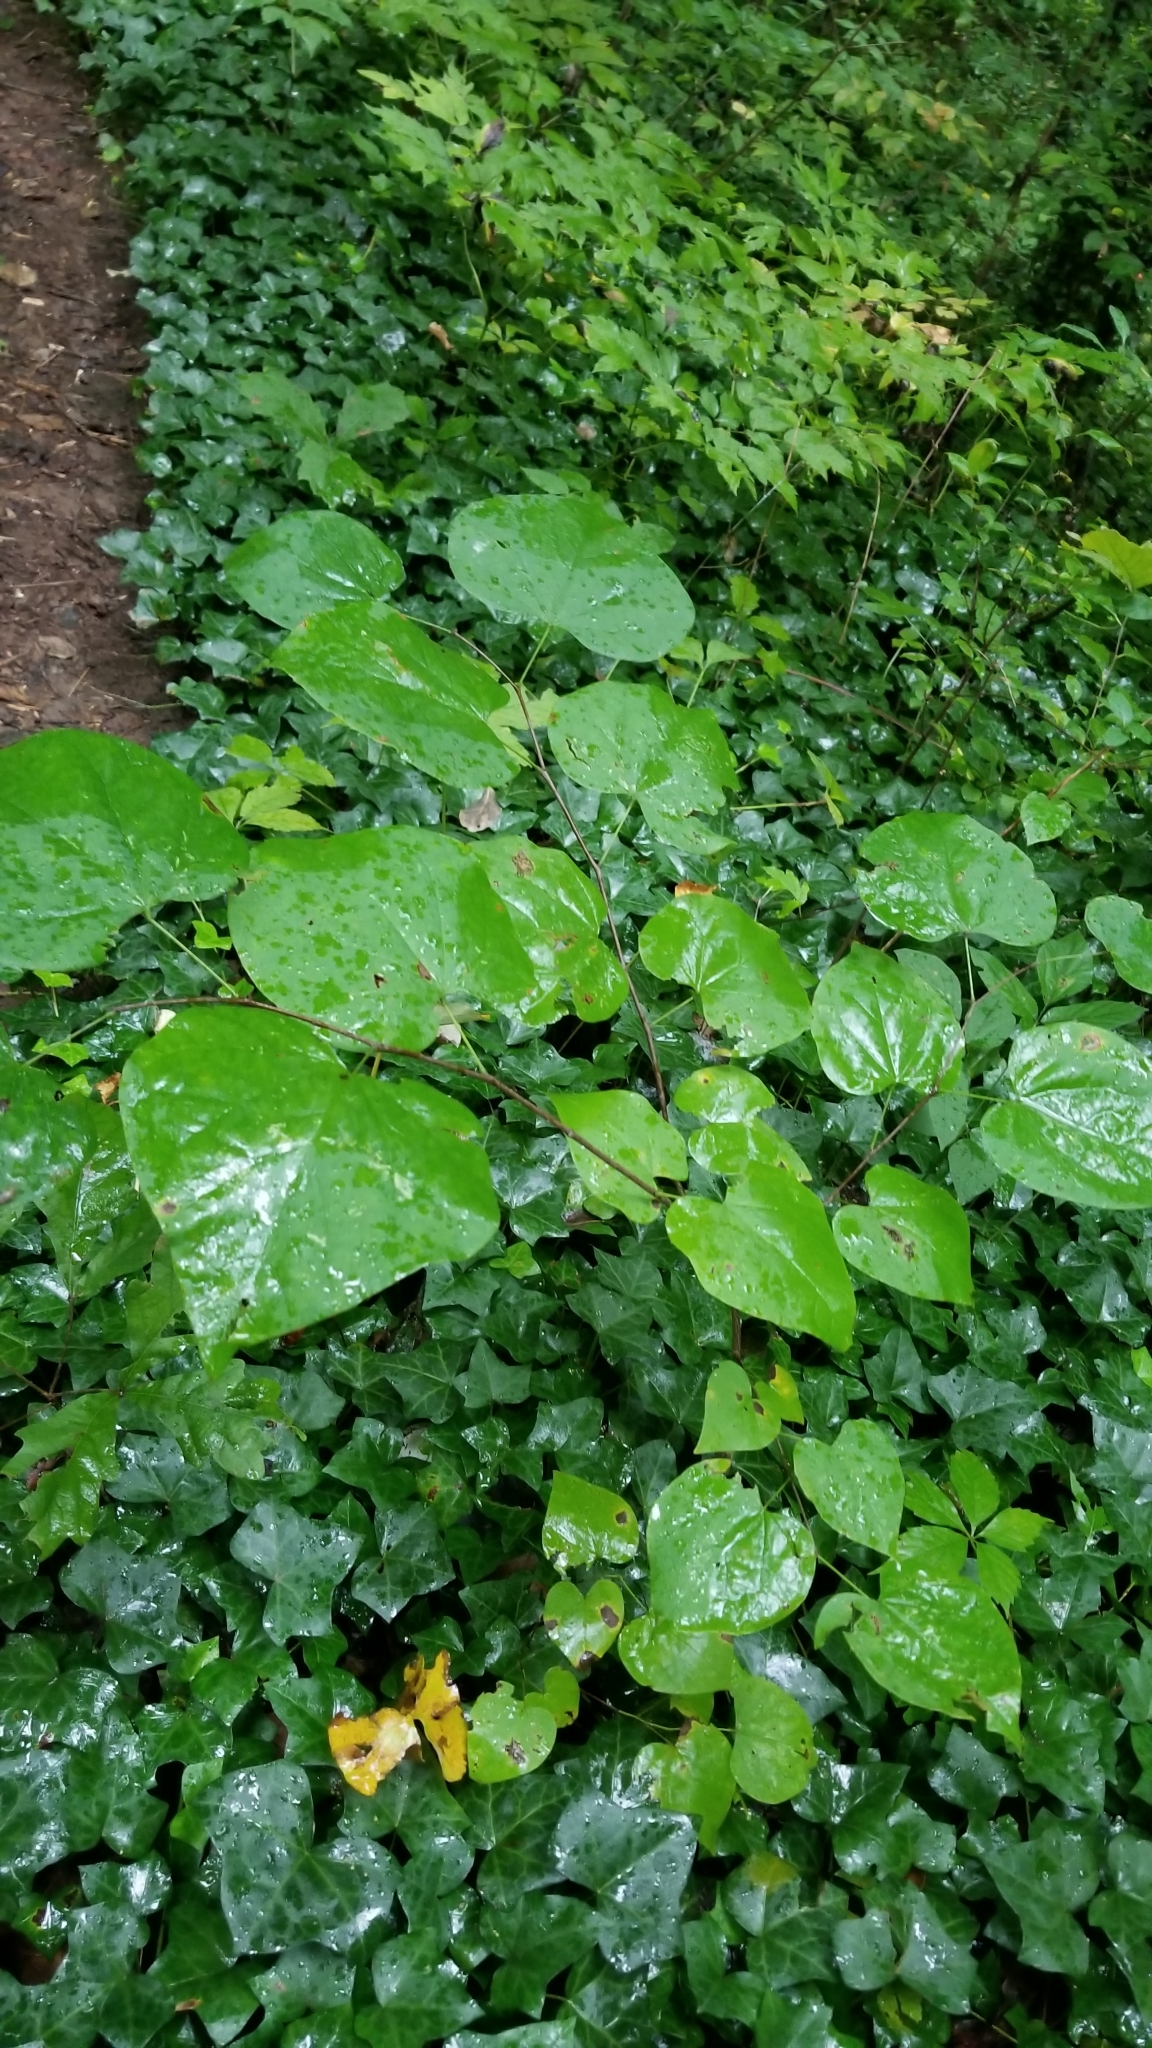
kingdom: Plantae
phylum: Tracheophyta
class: Magnoliopsida
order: Fabales
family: Fabaceae
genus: Cercis
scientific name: Cercis canadensis
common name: Eastern redbud
